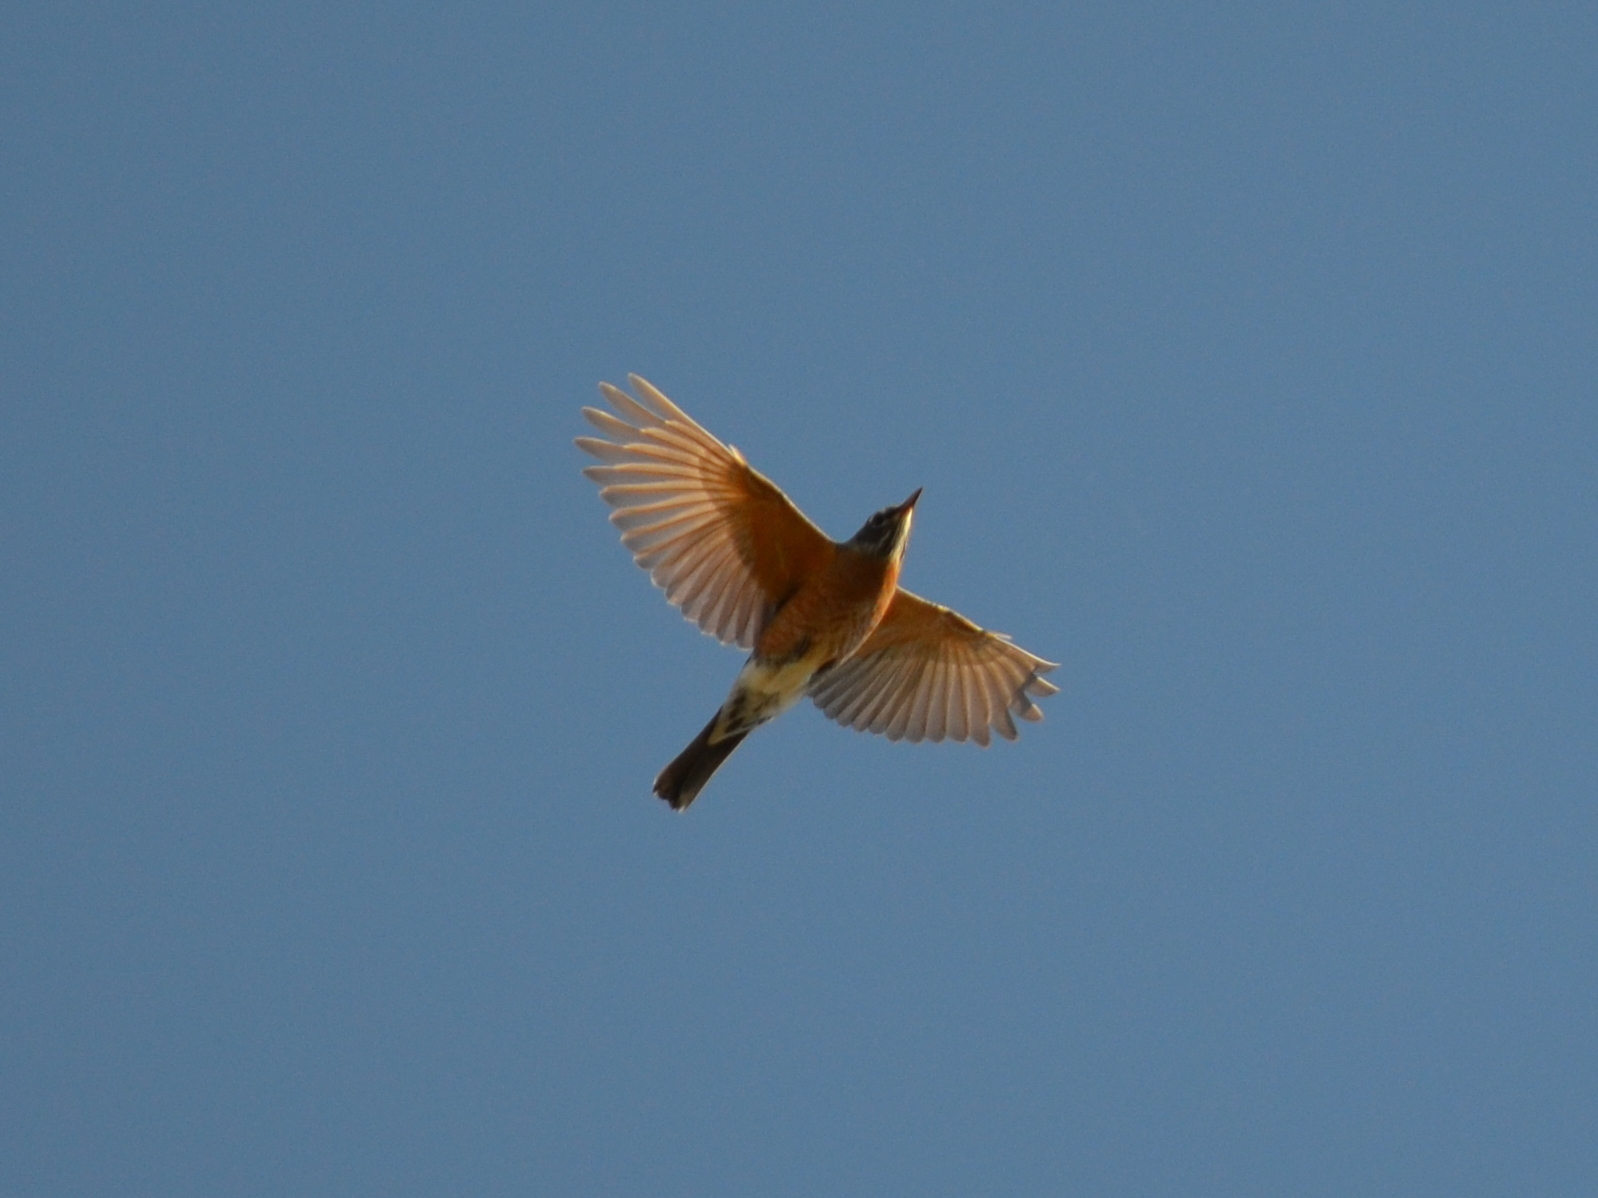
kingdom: Animalia
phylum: Chordata
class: Aves
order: Passeriformes
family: Turdidae
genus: Turdus
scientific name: Turdus migratorius
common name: American robin
